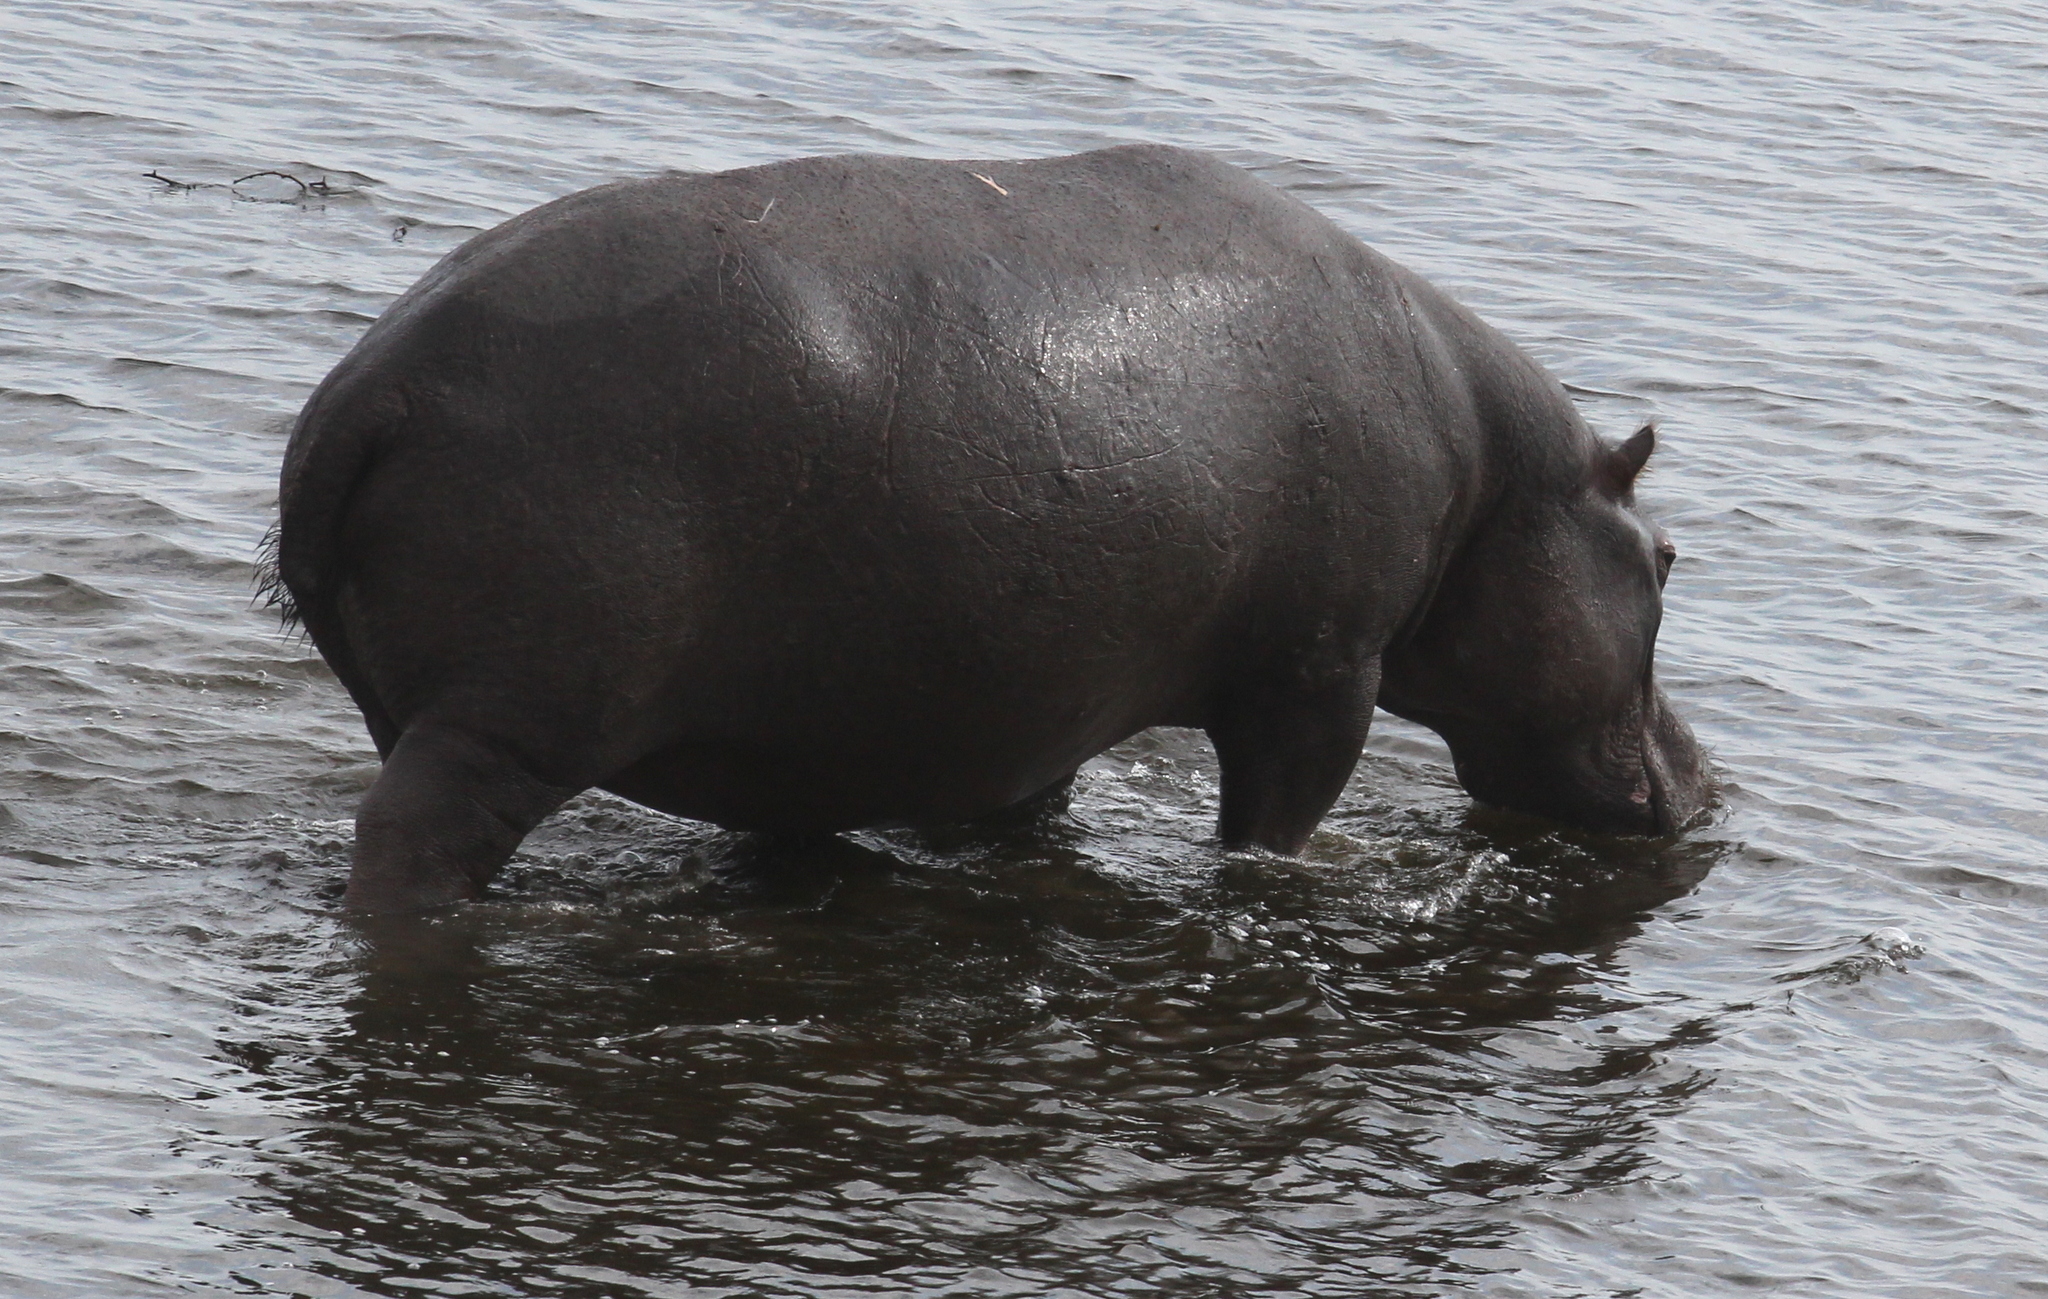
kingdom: Animalia
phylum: Chordata
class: Mammalia
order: Artiodactyla
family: Hippopotamidae
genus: Hippopotamus
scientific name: Hippopotamus amphibius
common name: Common hippopotamus
